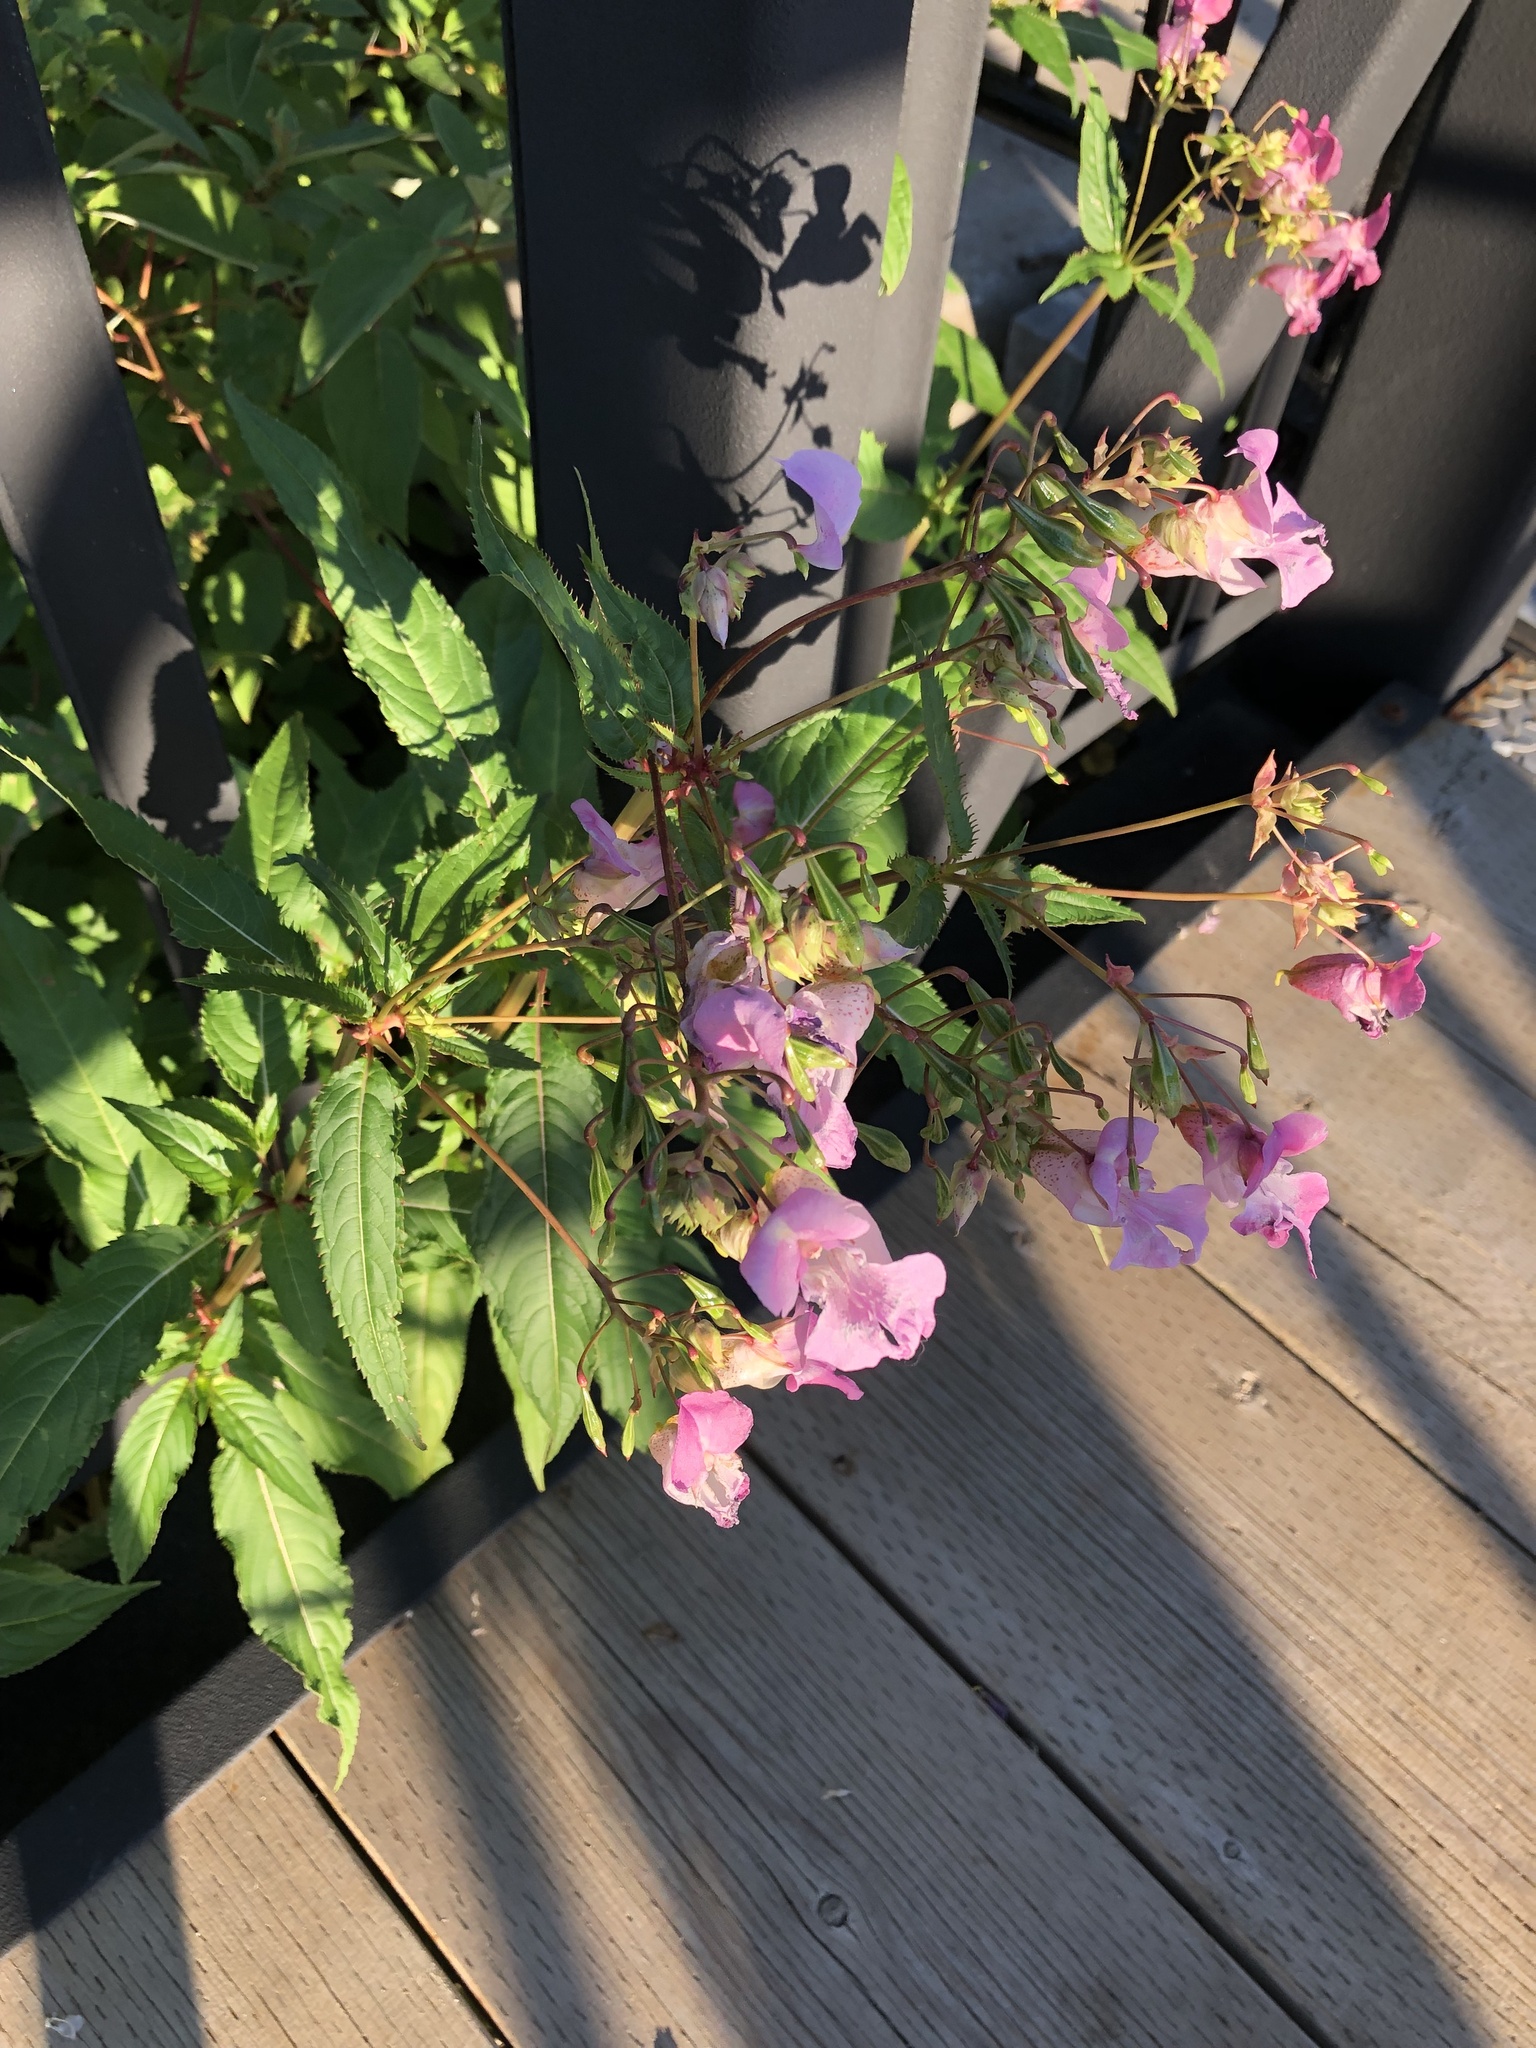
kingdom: Plantae
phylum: Tracheophyta
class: Magnoliopsida
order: Ericales
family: Balsaminaceae
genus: Impatiens
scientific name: Impatiens glandulifera
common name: Himalayan balsam
